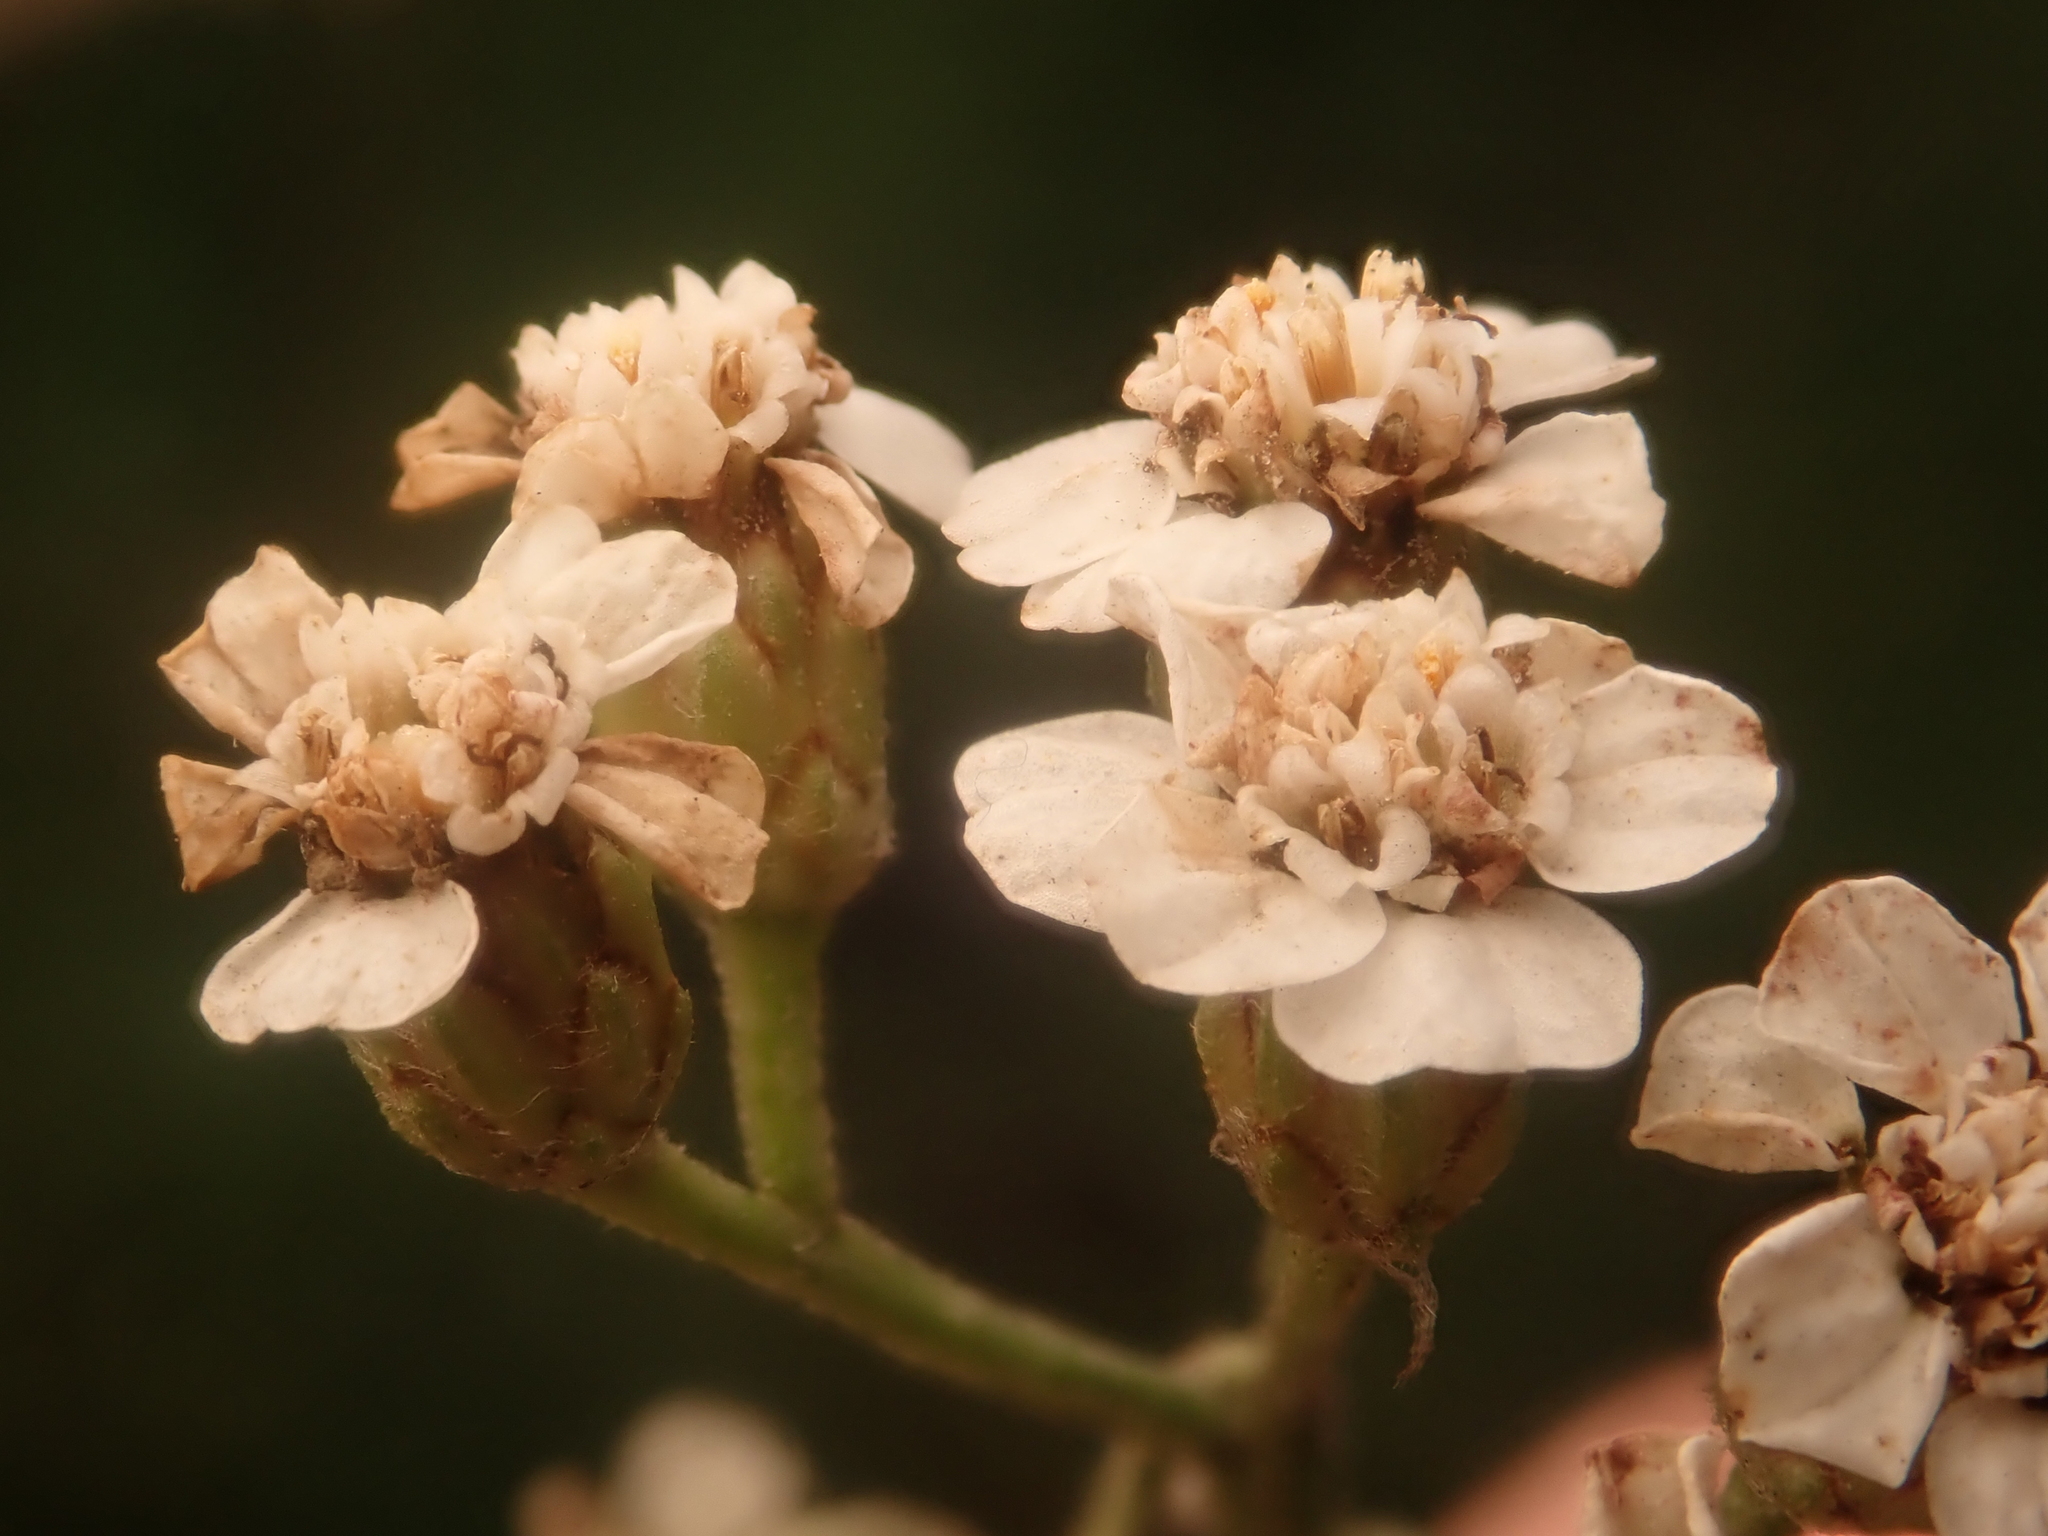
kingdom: Plantae
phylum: Tracheophyta
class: Magnoliopsida
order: Asterales
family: Asteraceae
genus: Achillea
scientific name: Achillea millefolium
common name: Yarrow
